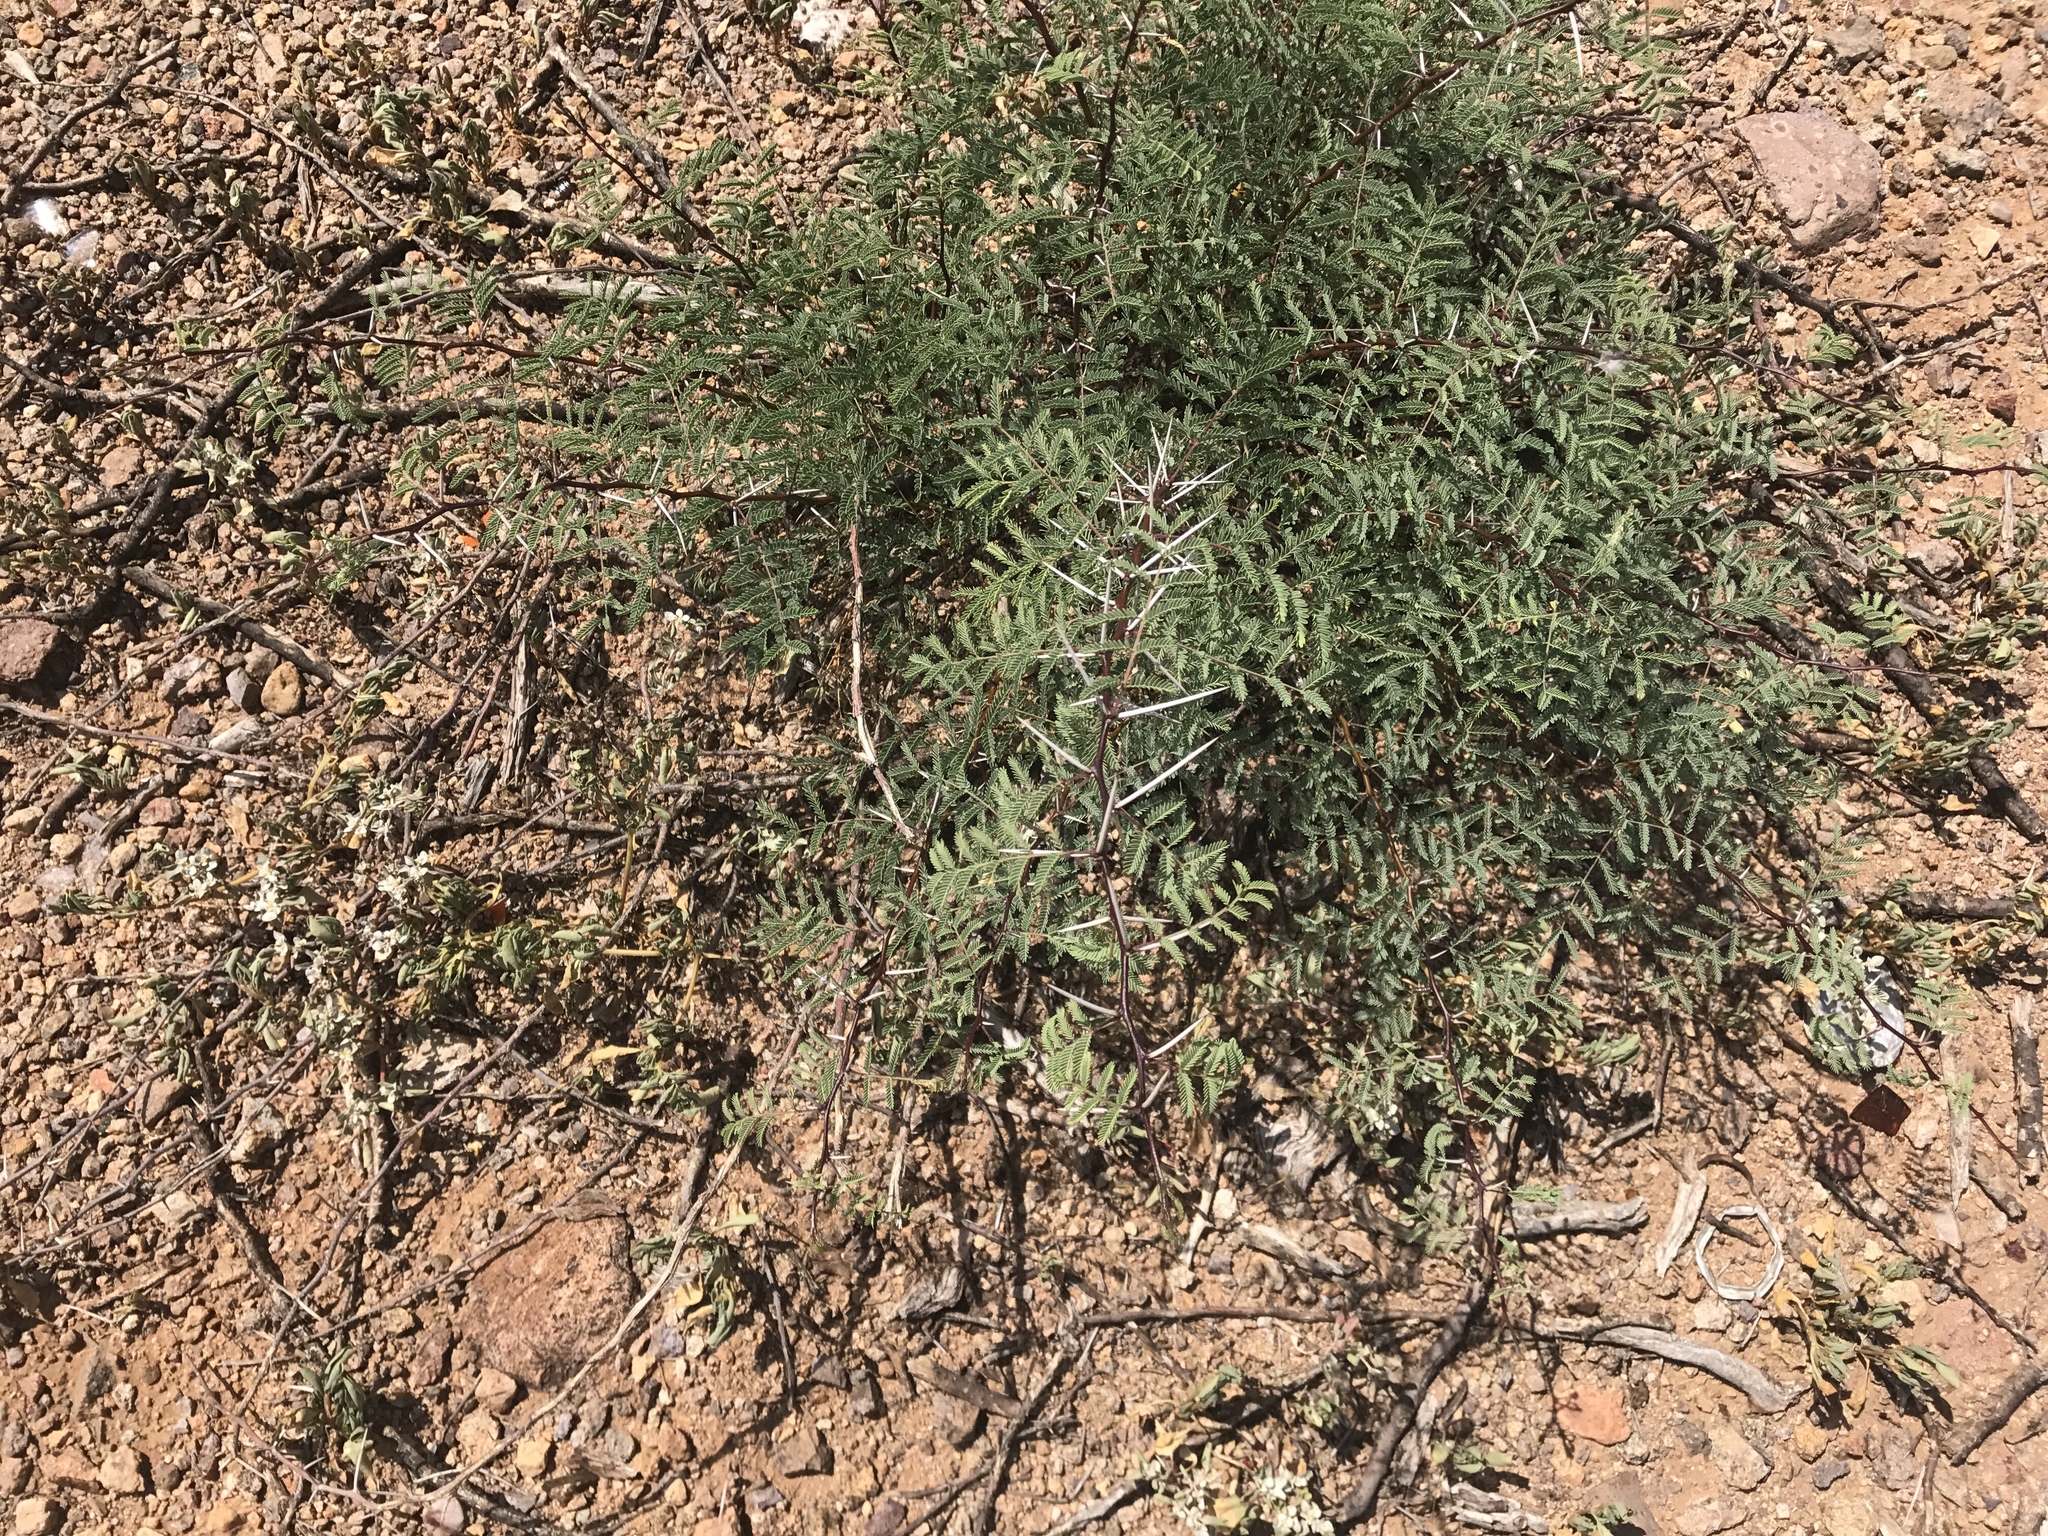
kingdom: Plantae
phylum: Tracheophyta
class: Magnoliopsida
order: Fabales
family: Fabaceae
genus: Vachellia
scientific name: Vachellia constricta
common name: Mescat acacia
